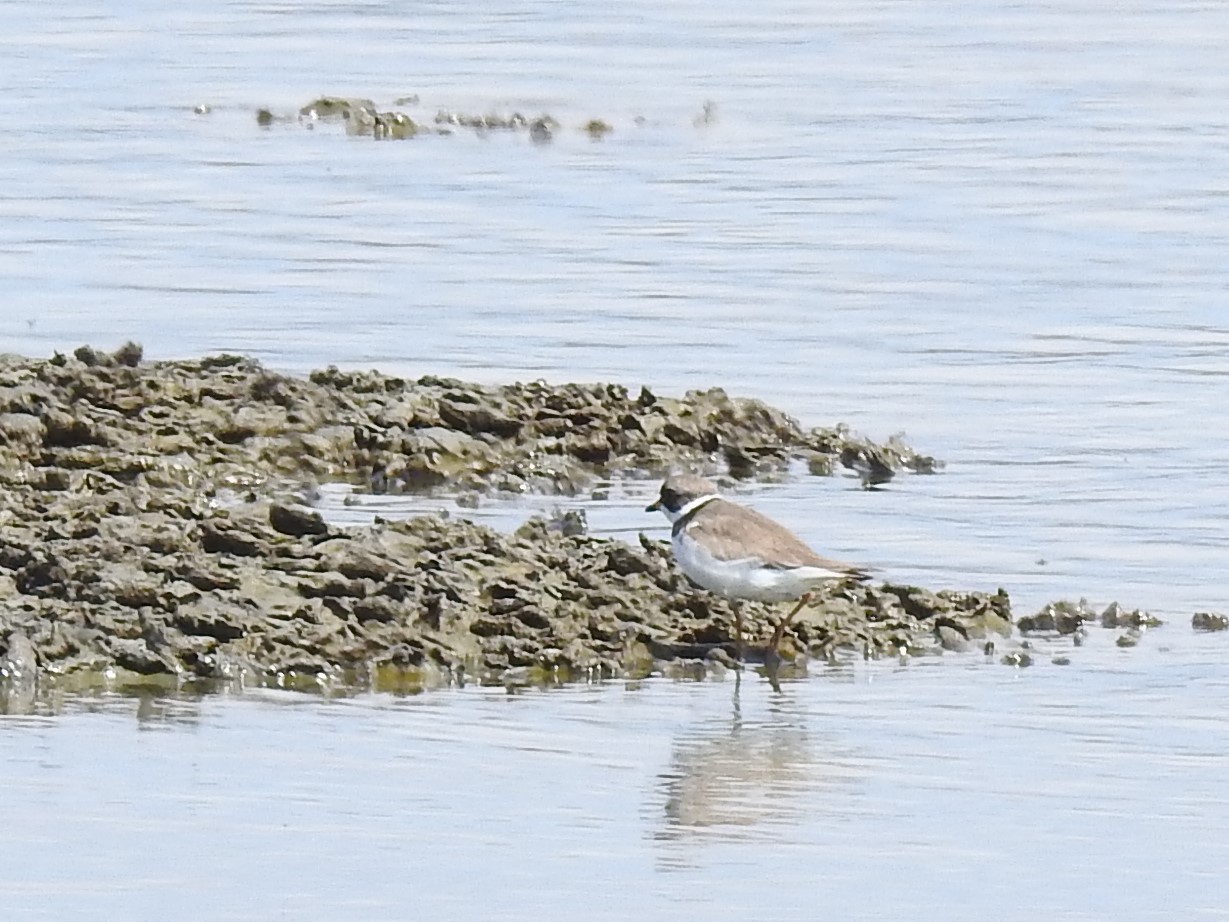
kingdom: Animalia
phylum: Chordata
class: Aves
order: Charadriiformes
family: Charadriidae
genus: Charadrius
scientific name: Charadrius semipalmatus
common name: Semipalmated plover
